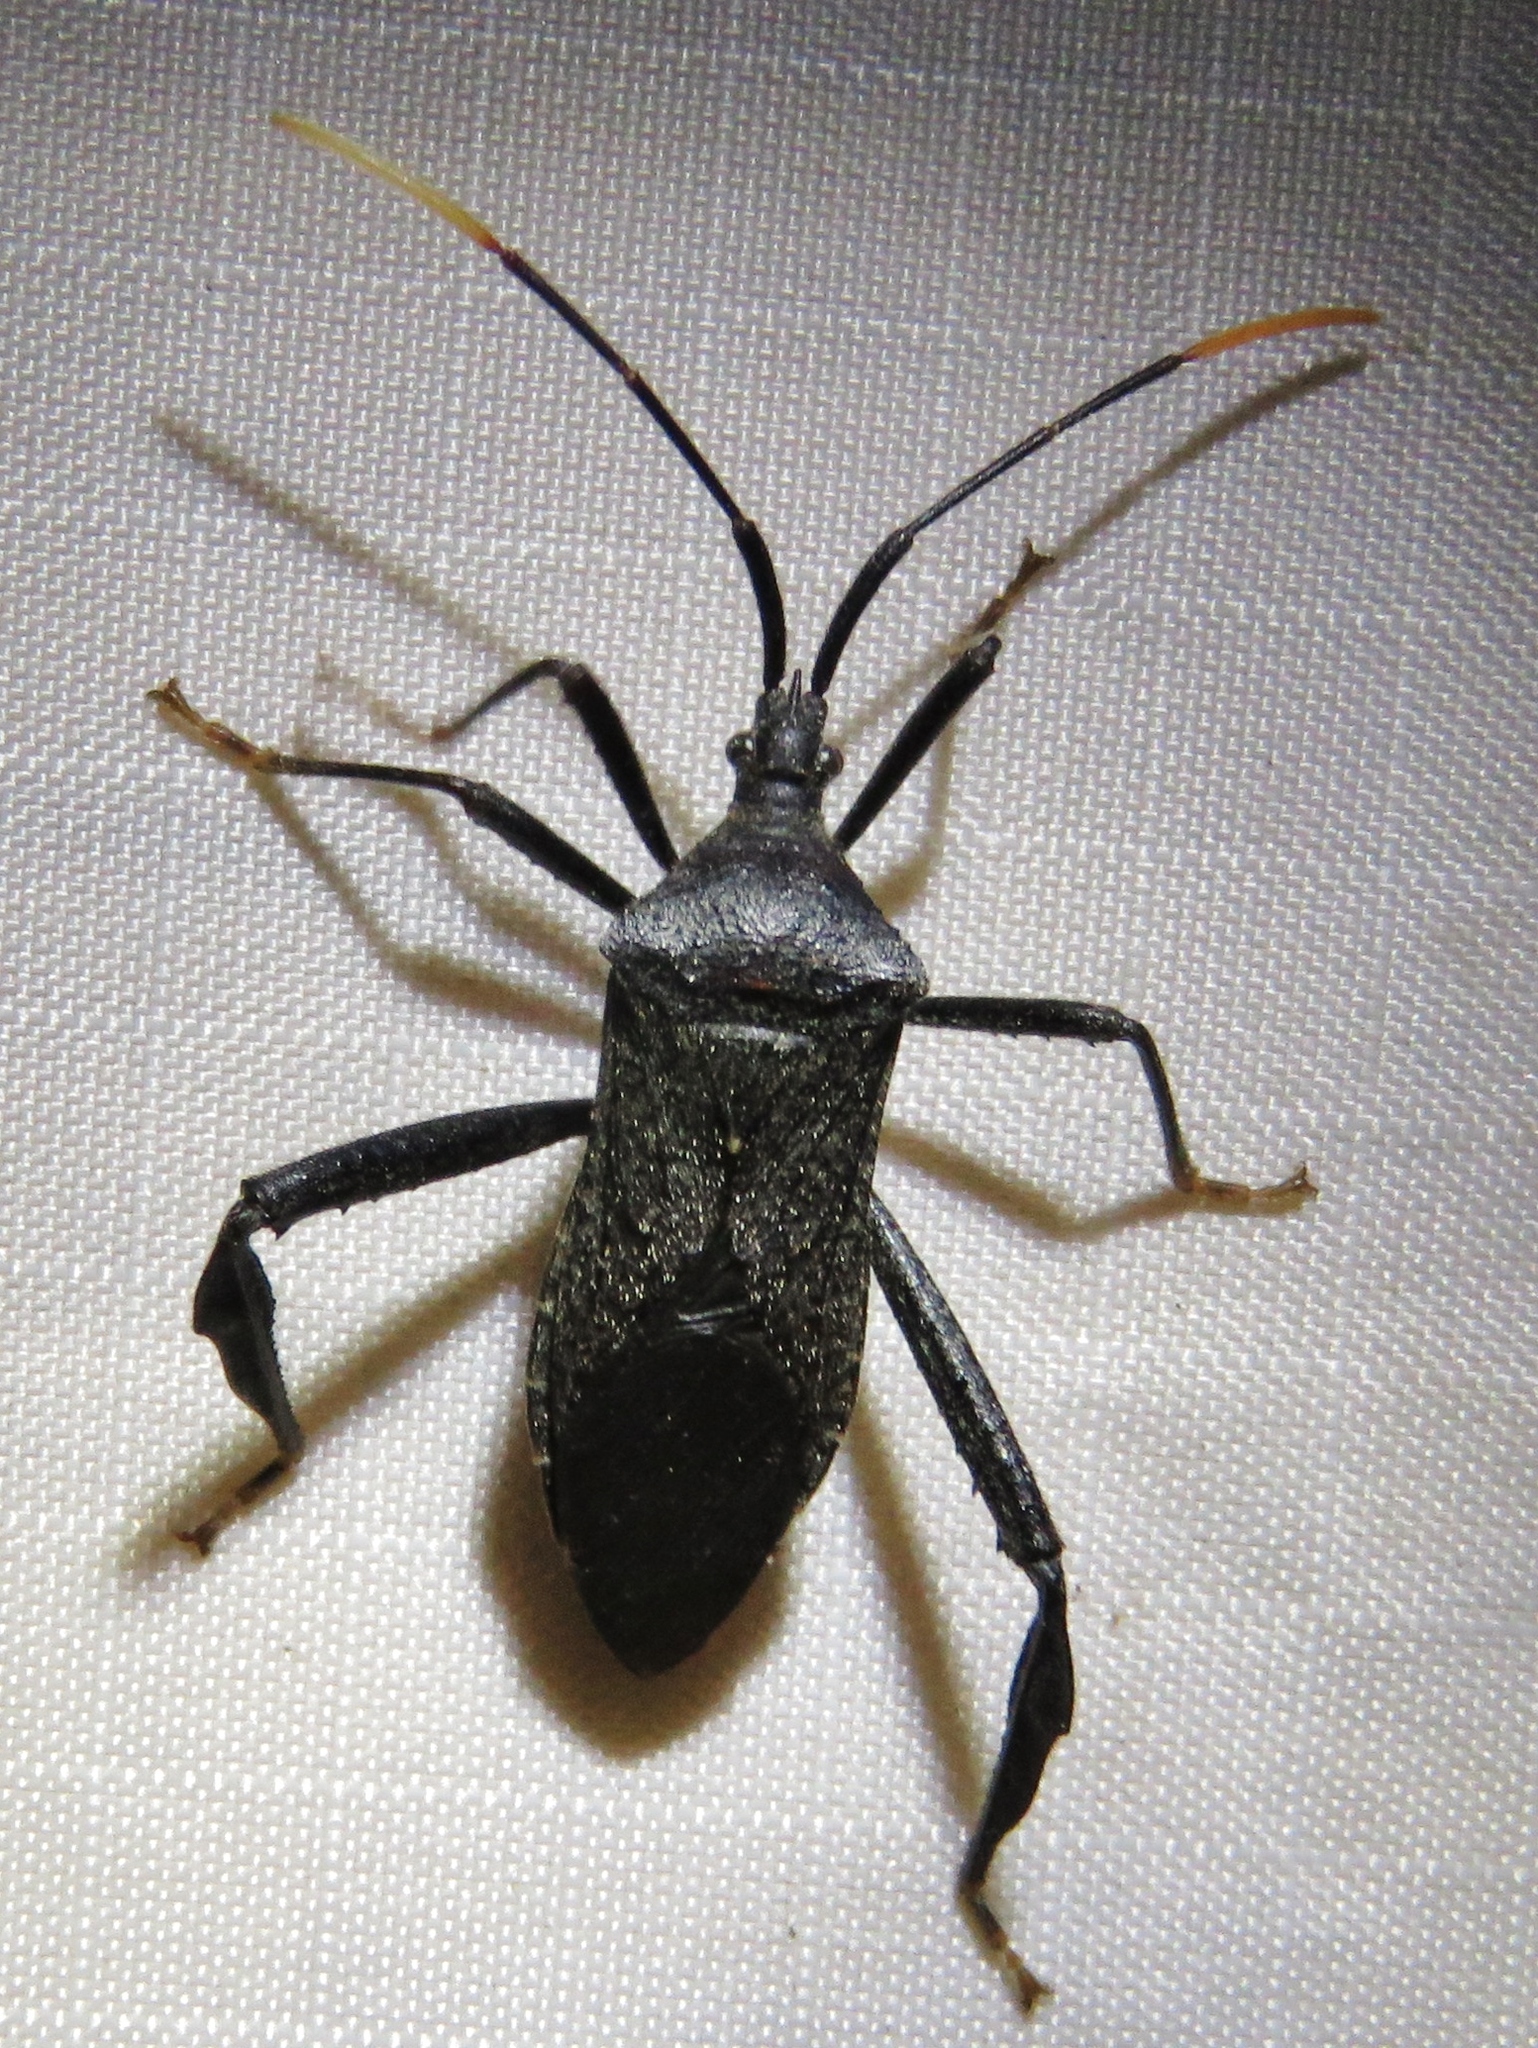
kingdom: Animalia
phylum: Arthropoda
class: Insecta
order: Hemiptera
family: Coreidae
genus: Acanthocephala
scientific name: Acanthocephala terminalis
